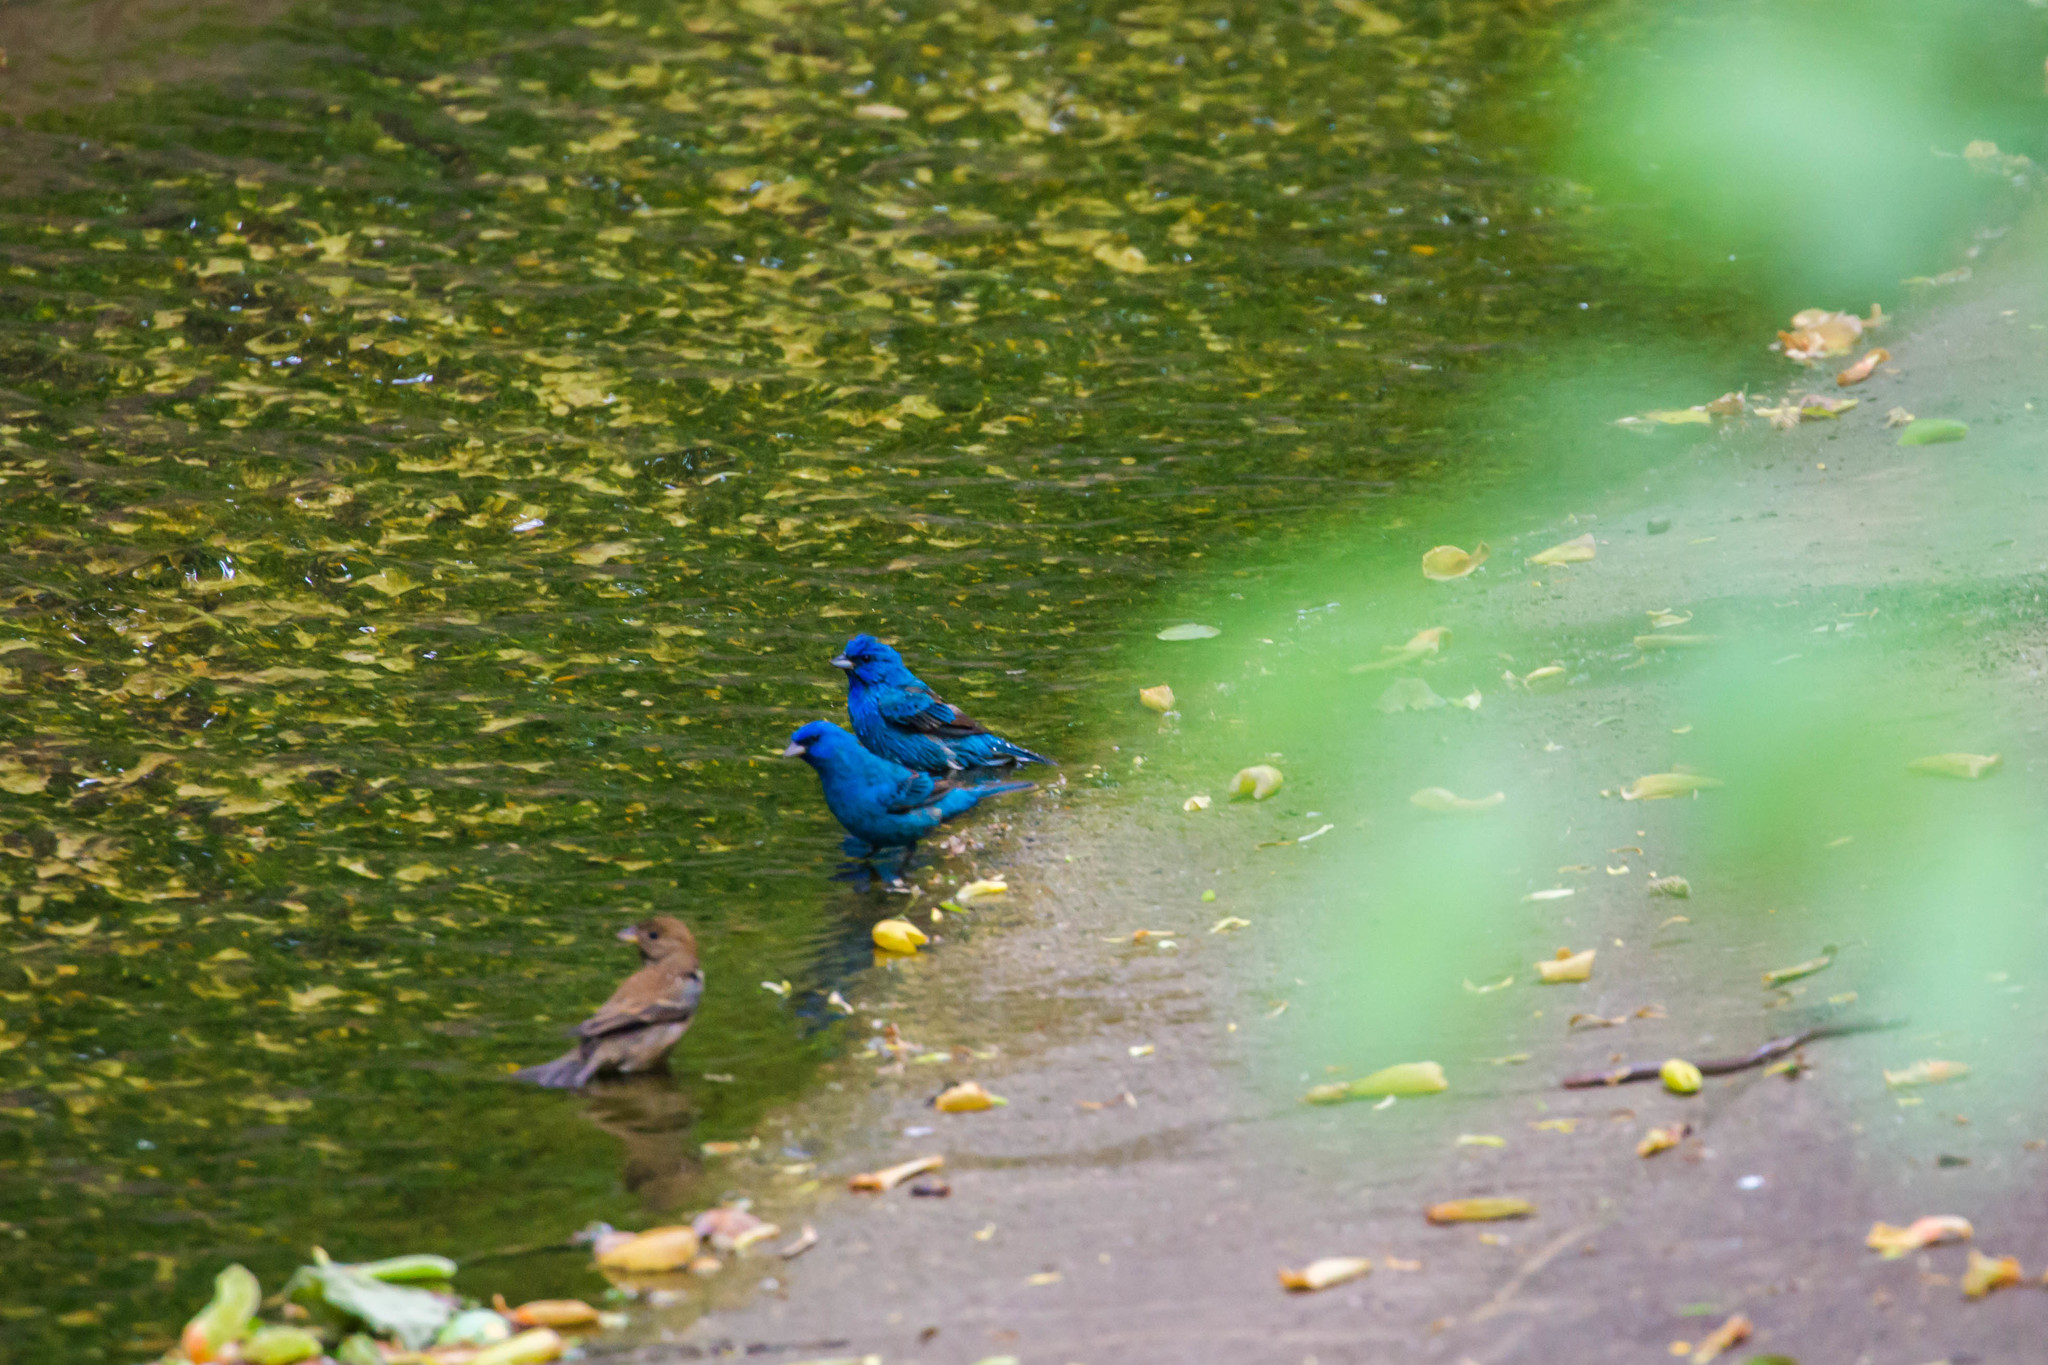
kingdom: Animalia
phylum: Chordata
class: Aves
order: Passeriformes
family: Cardinalidae
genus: Passerina
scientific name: Passerina cyanea
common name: Indigo bunting
